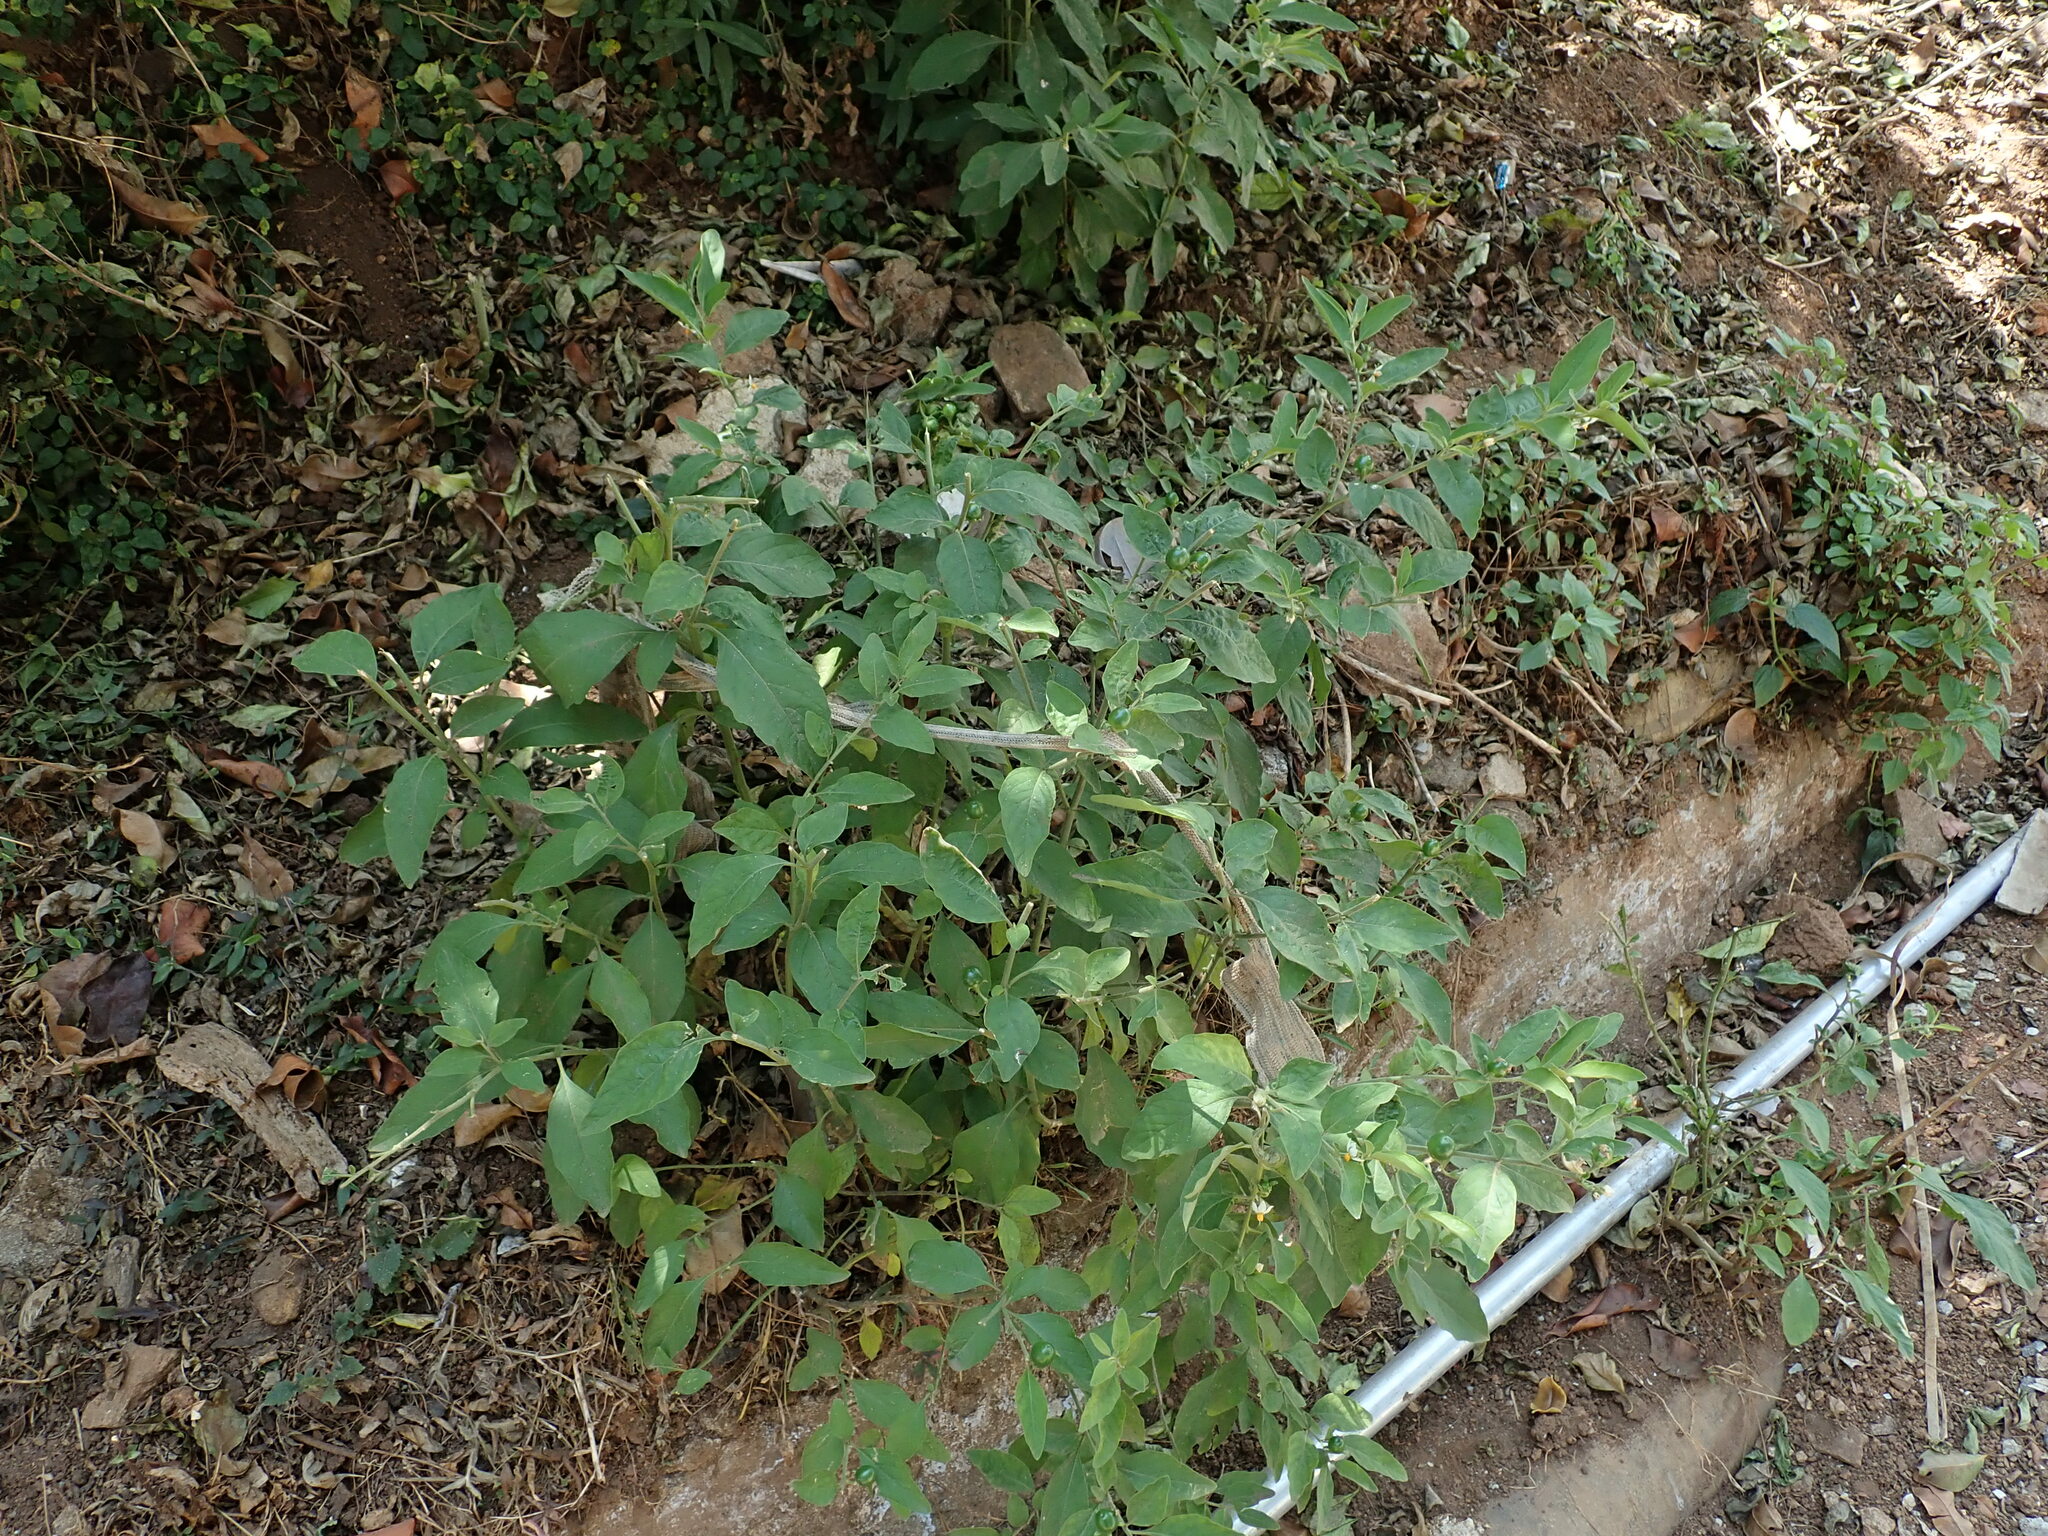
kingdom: Plantae
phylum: Tracheophyta
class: Magnoliopsida
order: Solanales
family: Solanaceae
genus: Solanum
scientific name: Solanum pseudocapsicum
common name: Jerusalem cherry
